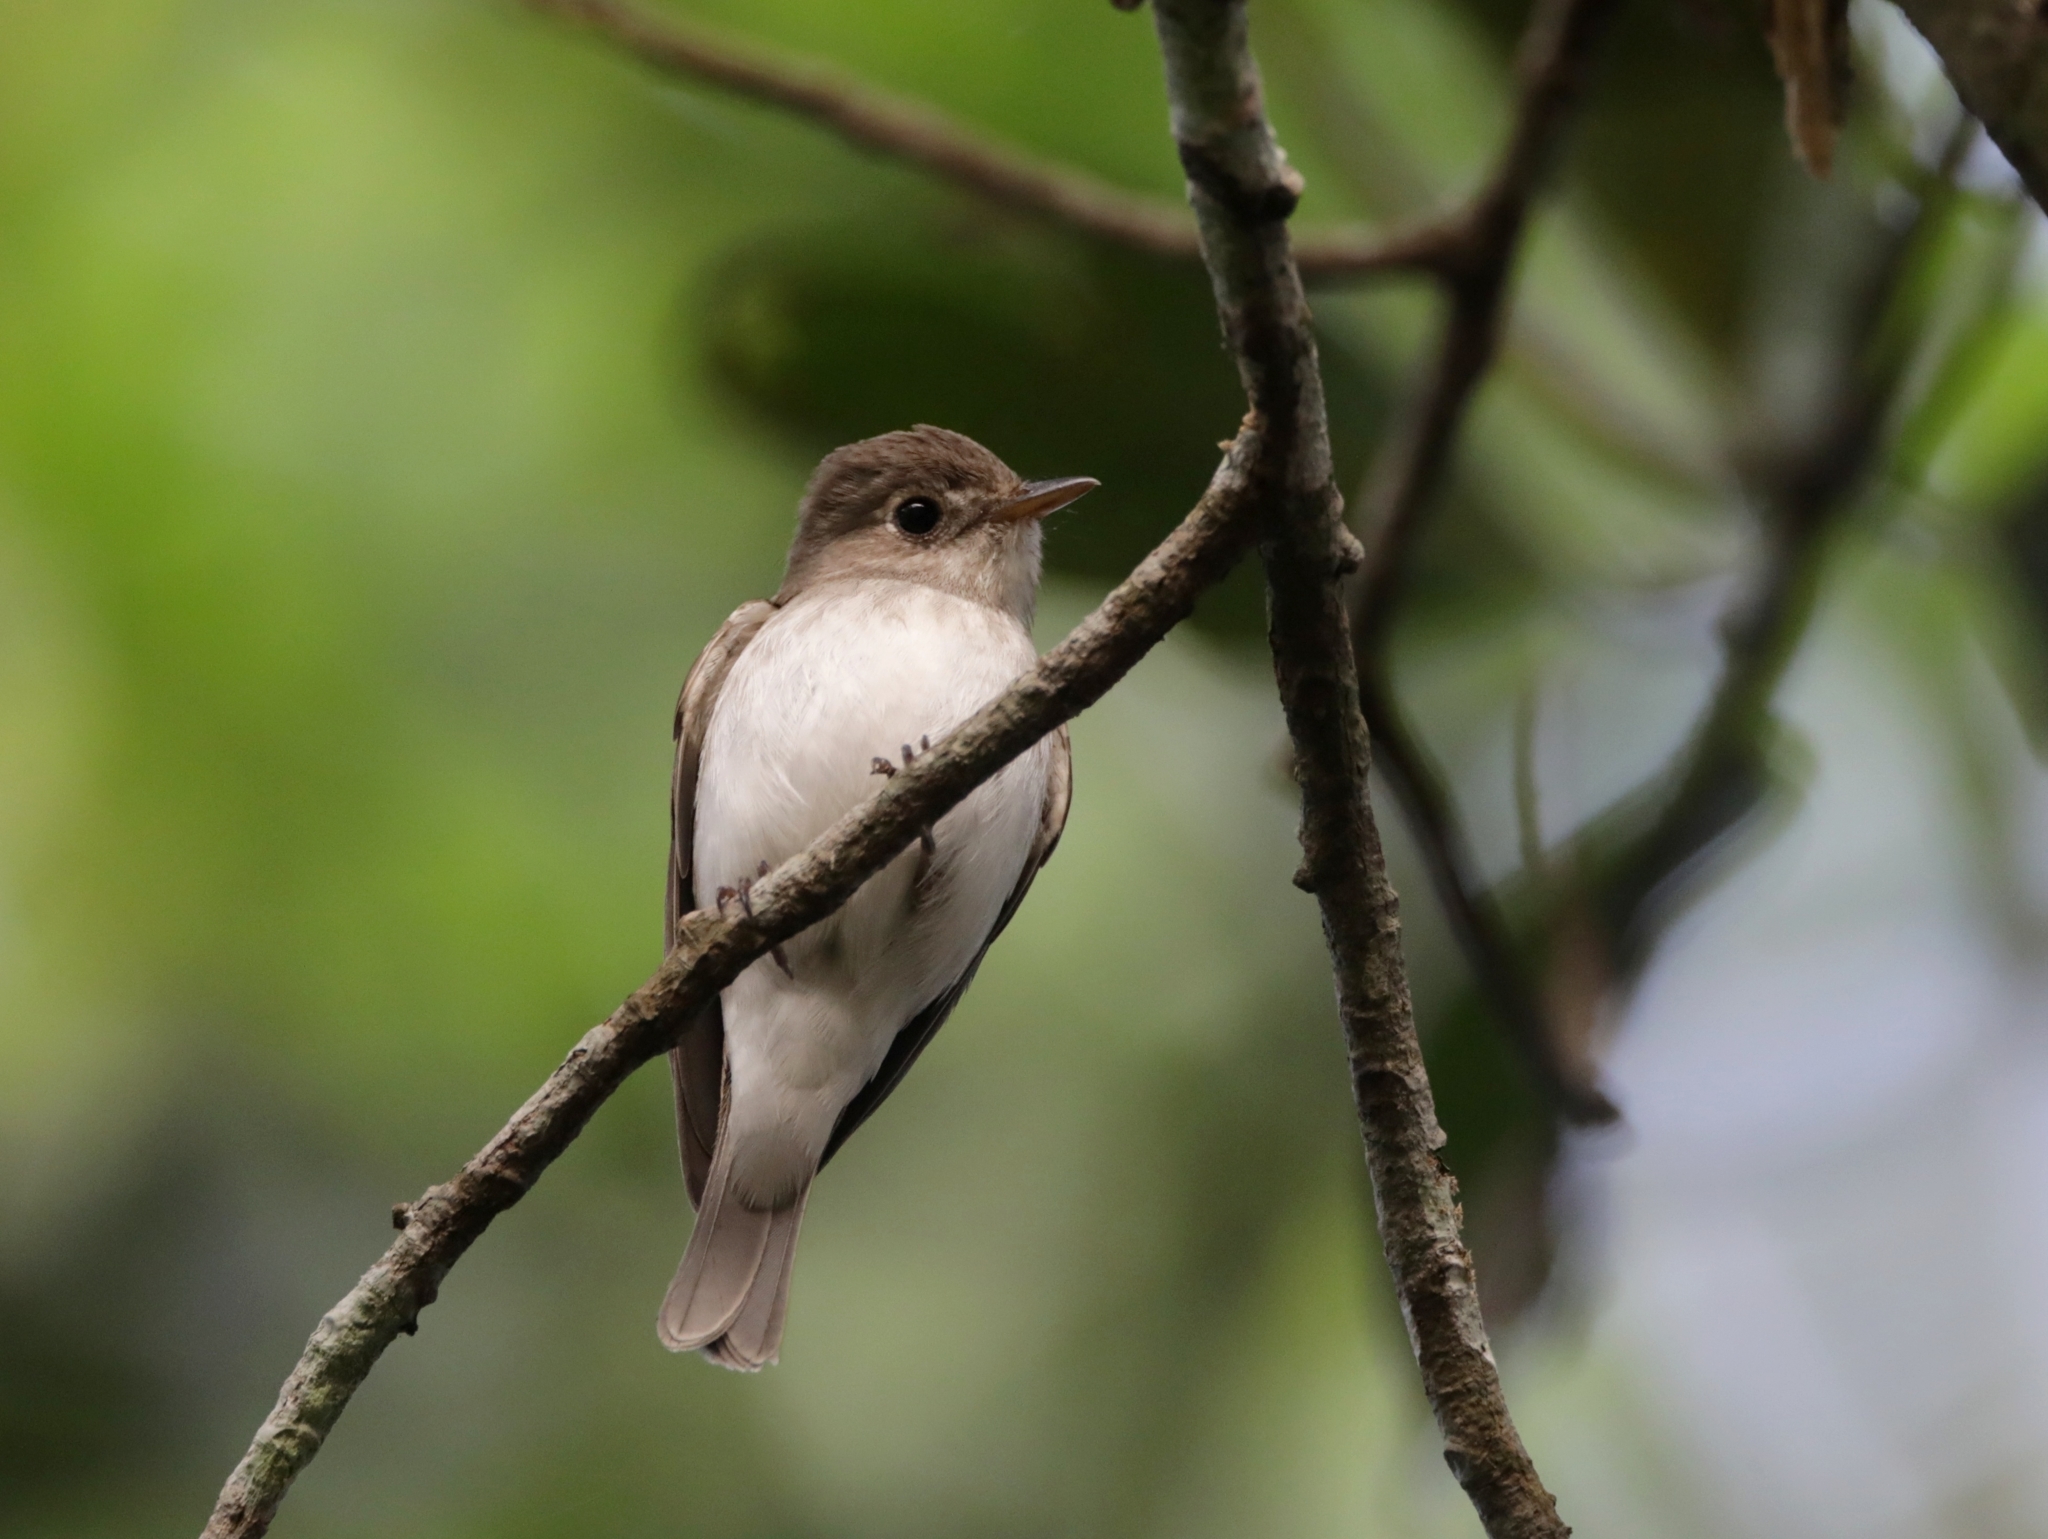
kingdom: Animalia
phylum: Chordata
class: Aves
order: Passeriformes
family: Muscicapidae
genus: Muscicapa
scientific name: Muscicapa latirostris
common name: Asian brown flycatcher
